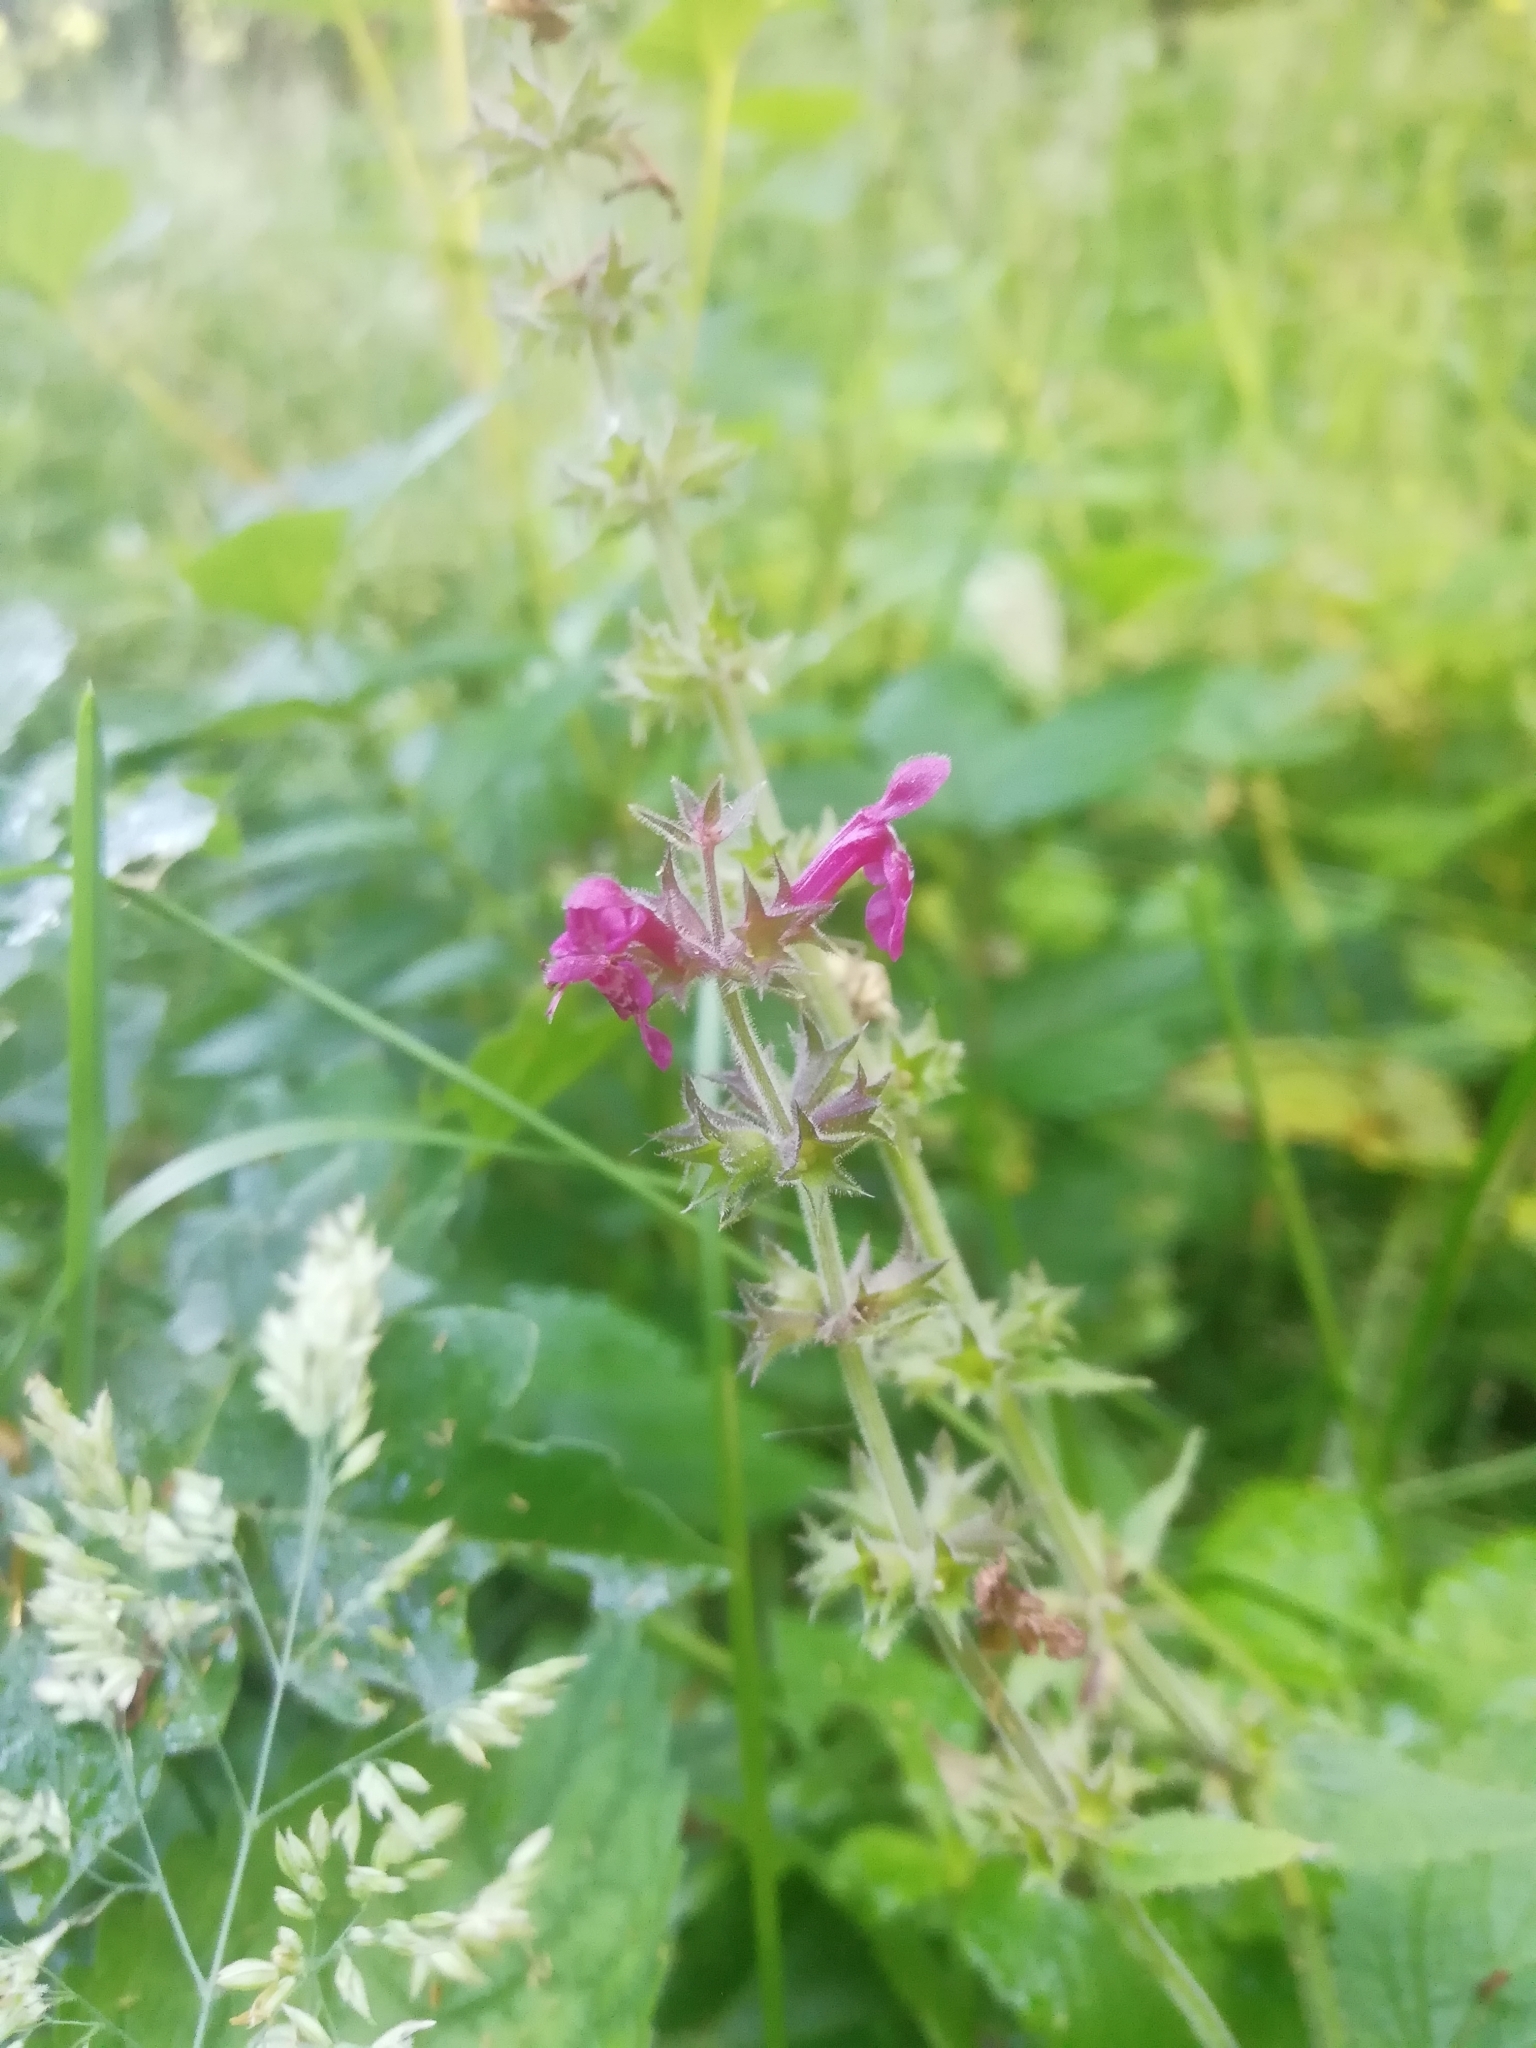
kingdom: Plantae
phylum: Tracheophyta
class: Magnoliopsida
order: Lamiales
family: Lamiaceae
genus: Stachys
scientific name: Stachys sylvatica
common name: Hedge woundwort
